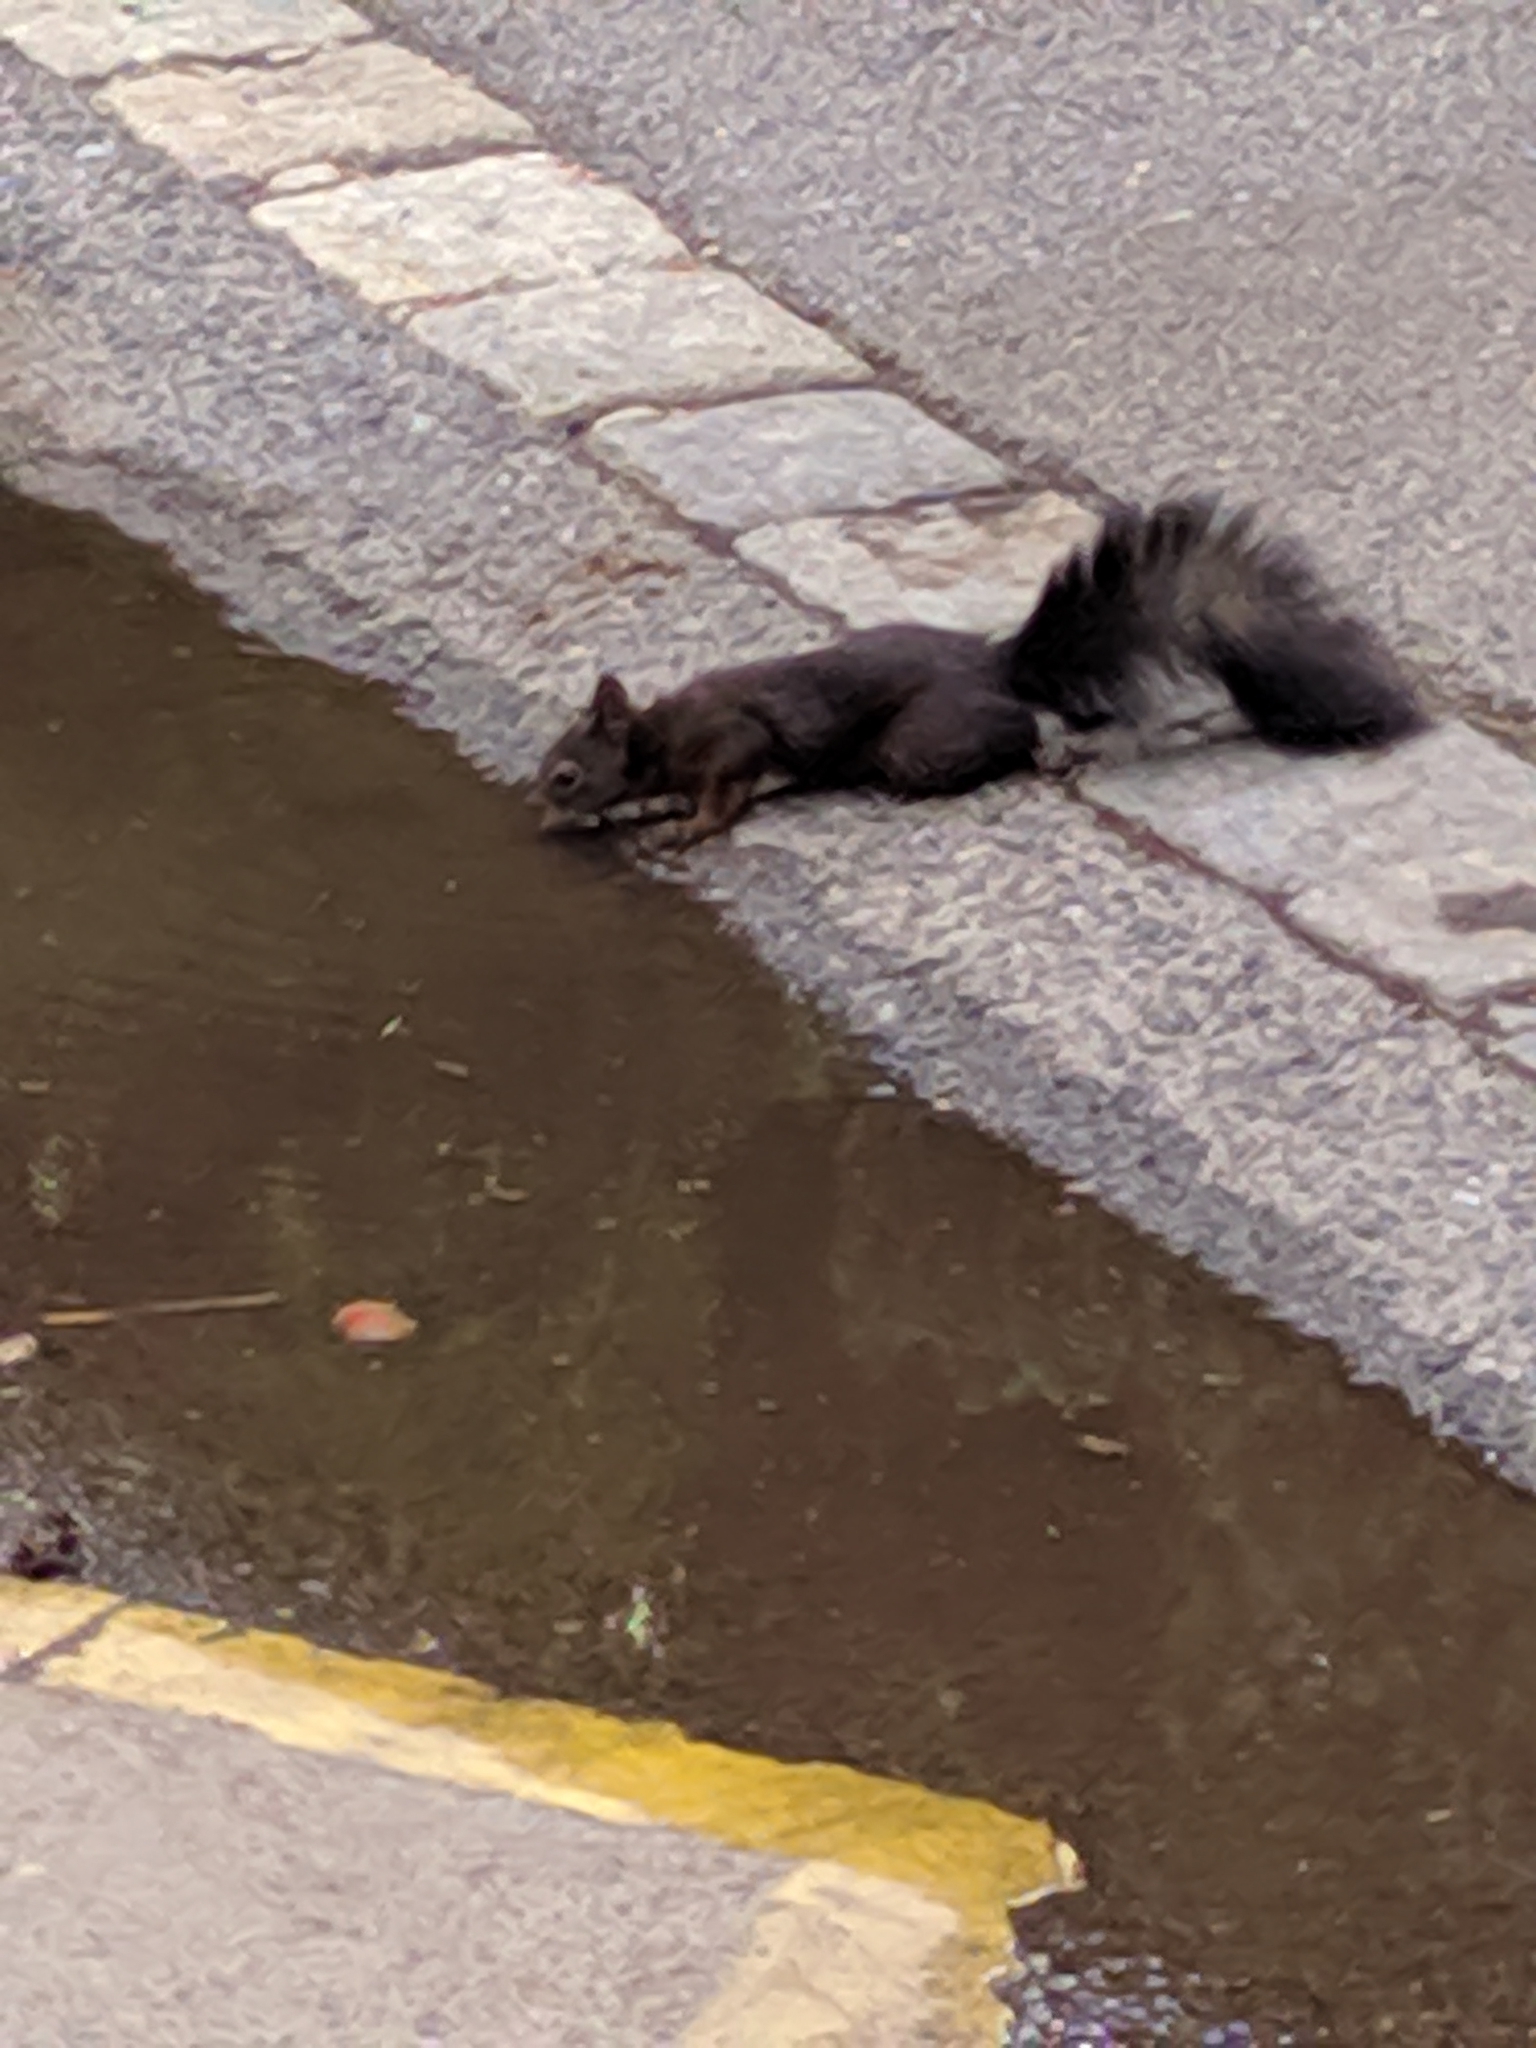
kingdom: Animalia
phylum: Chordata
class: Mammalia
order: Rodentia
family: Sciuridae
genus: Sciurus
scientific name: Sciurus vulgaris
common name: Eurasian red squirrel
